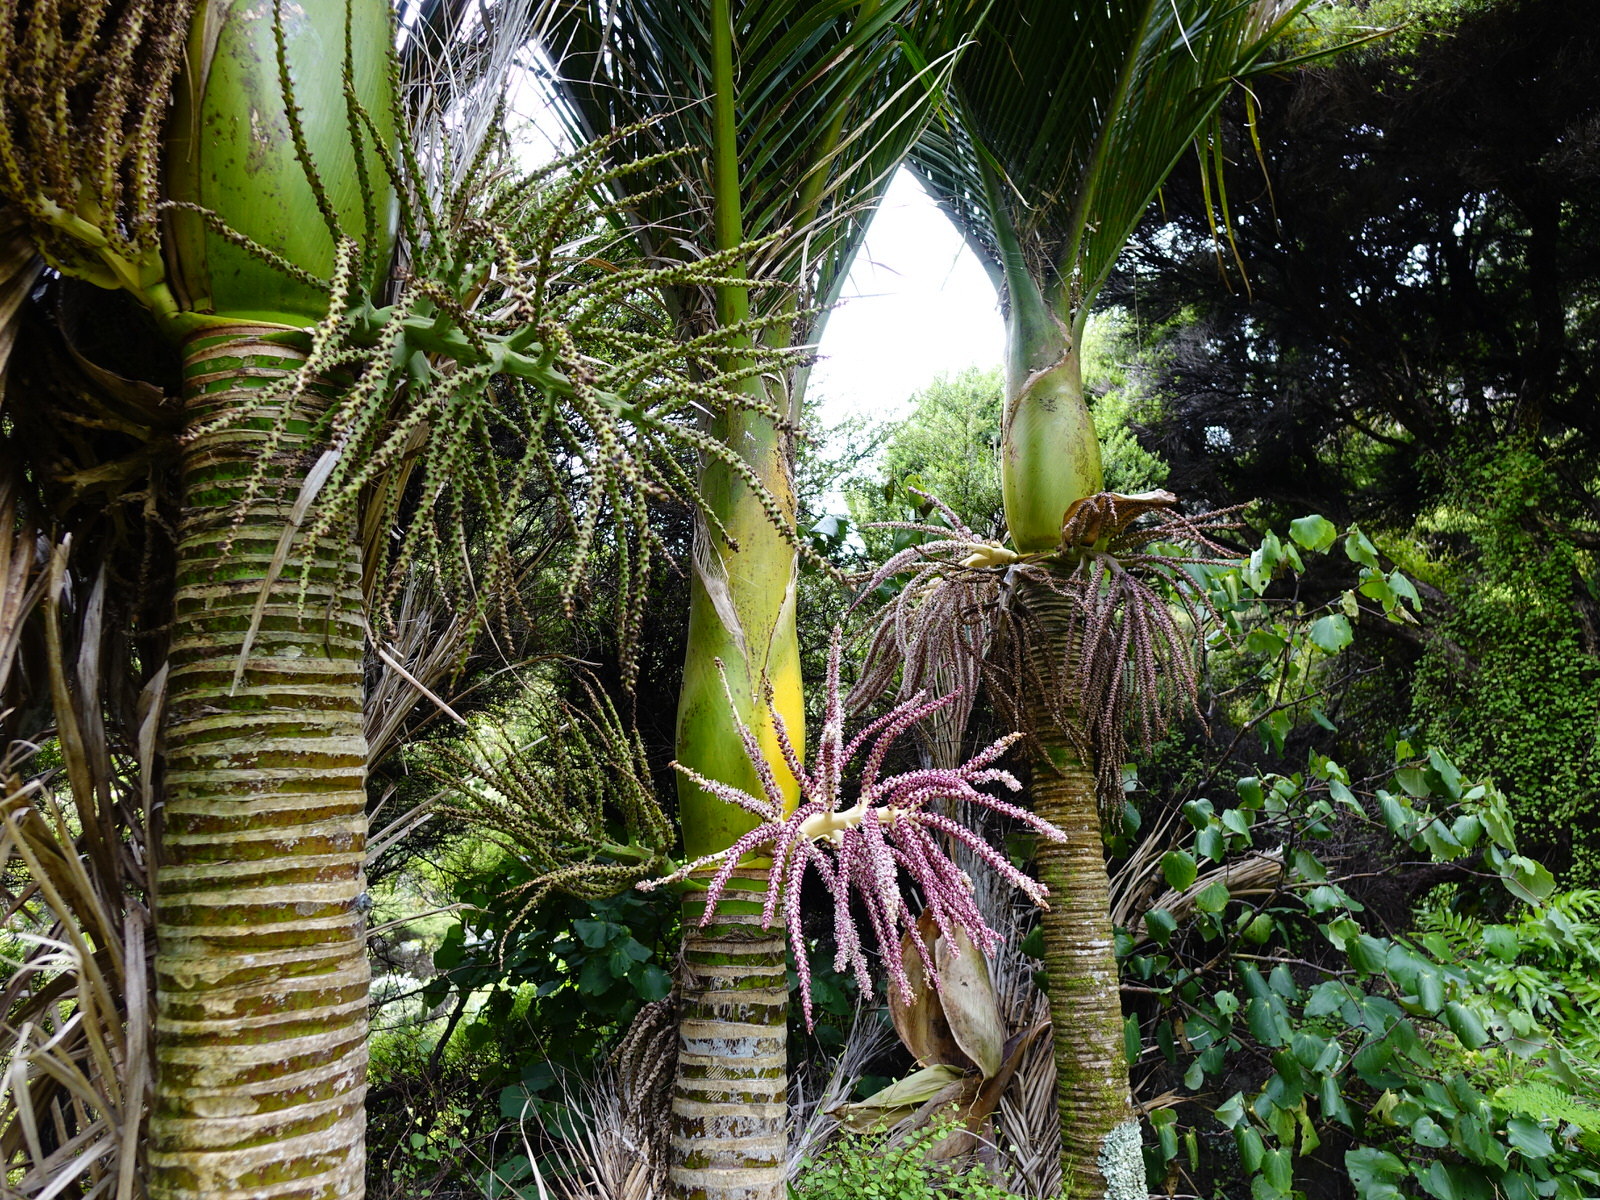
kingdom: Plantae
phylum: Tracheophyta
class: Liliopsida
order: Arecales
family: Arecaceae
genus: Rhopalostylis
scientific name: Rhopalostylis sapida
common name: Feather-duster palm
